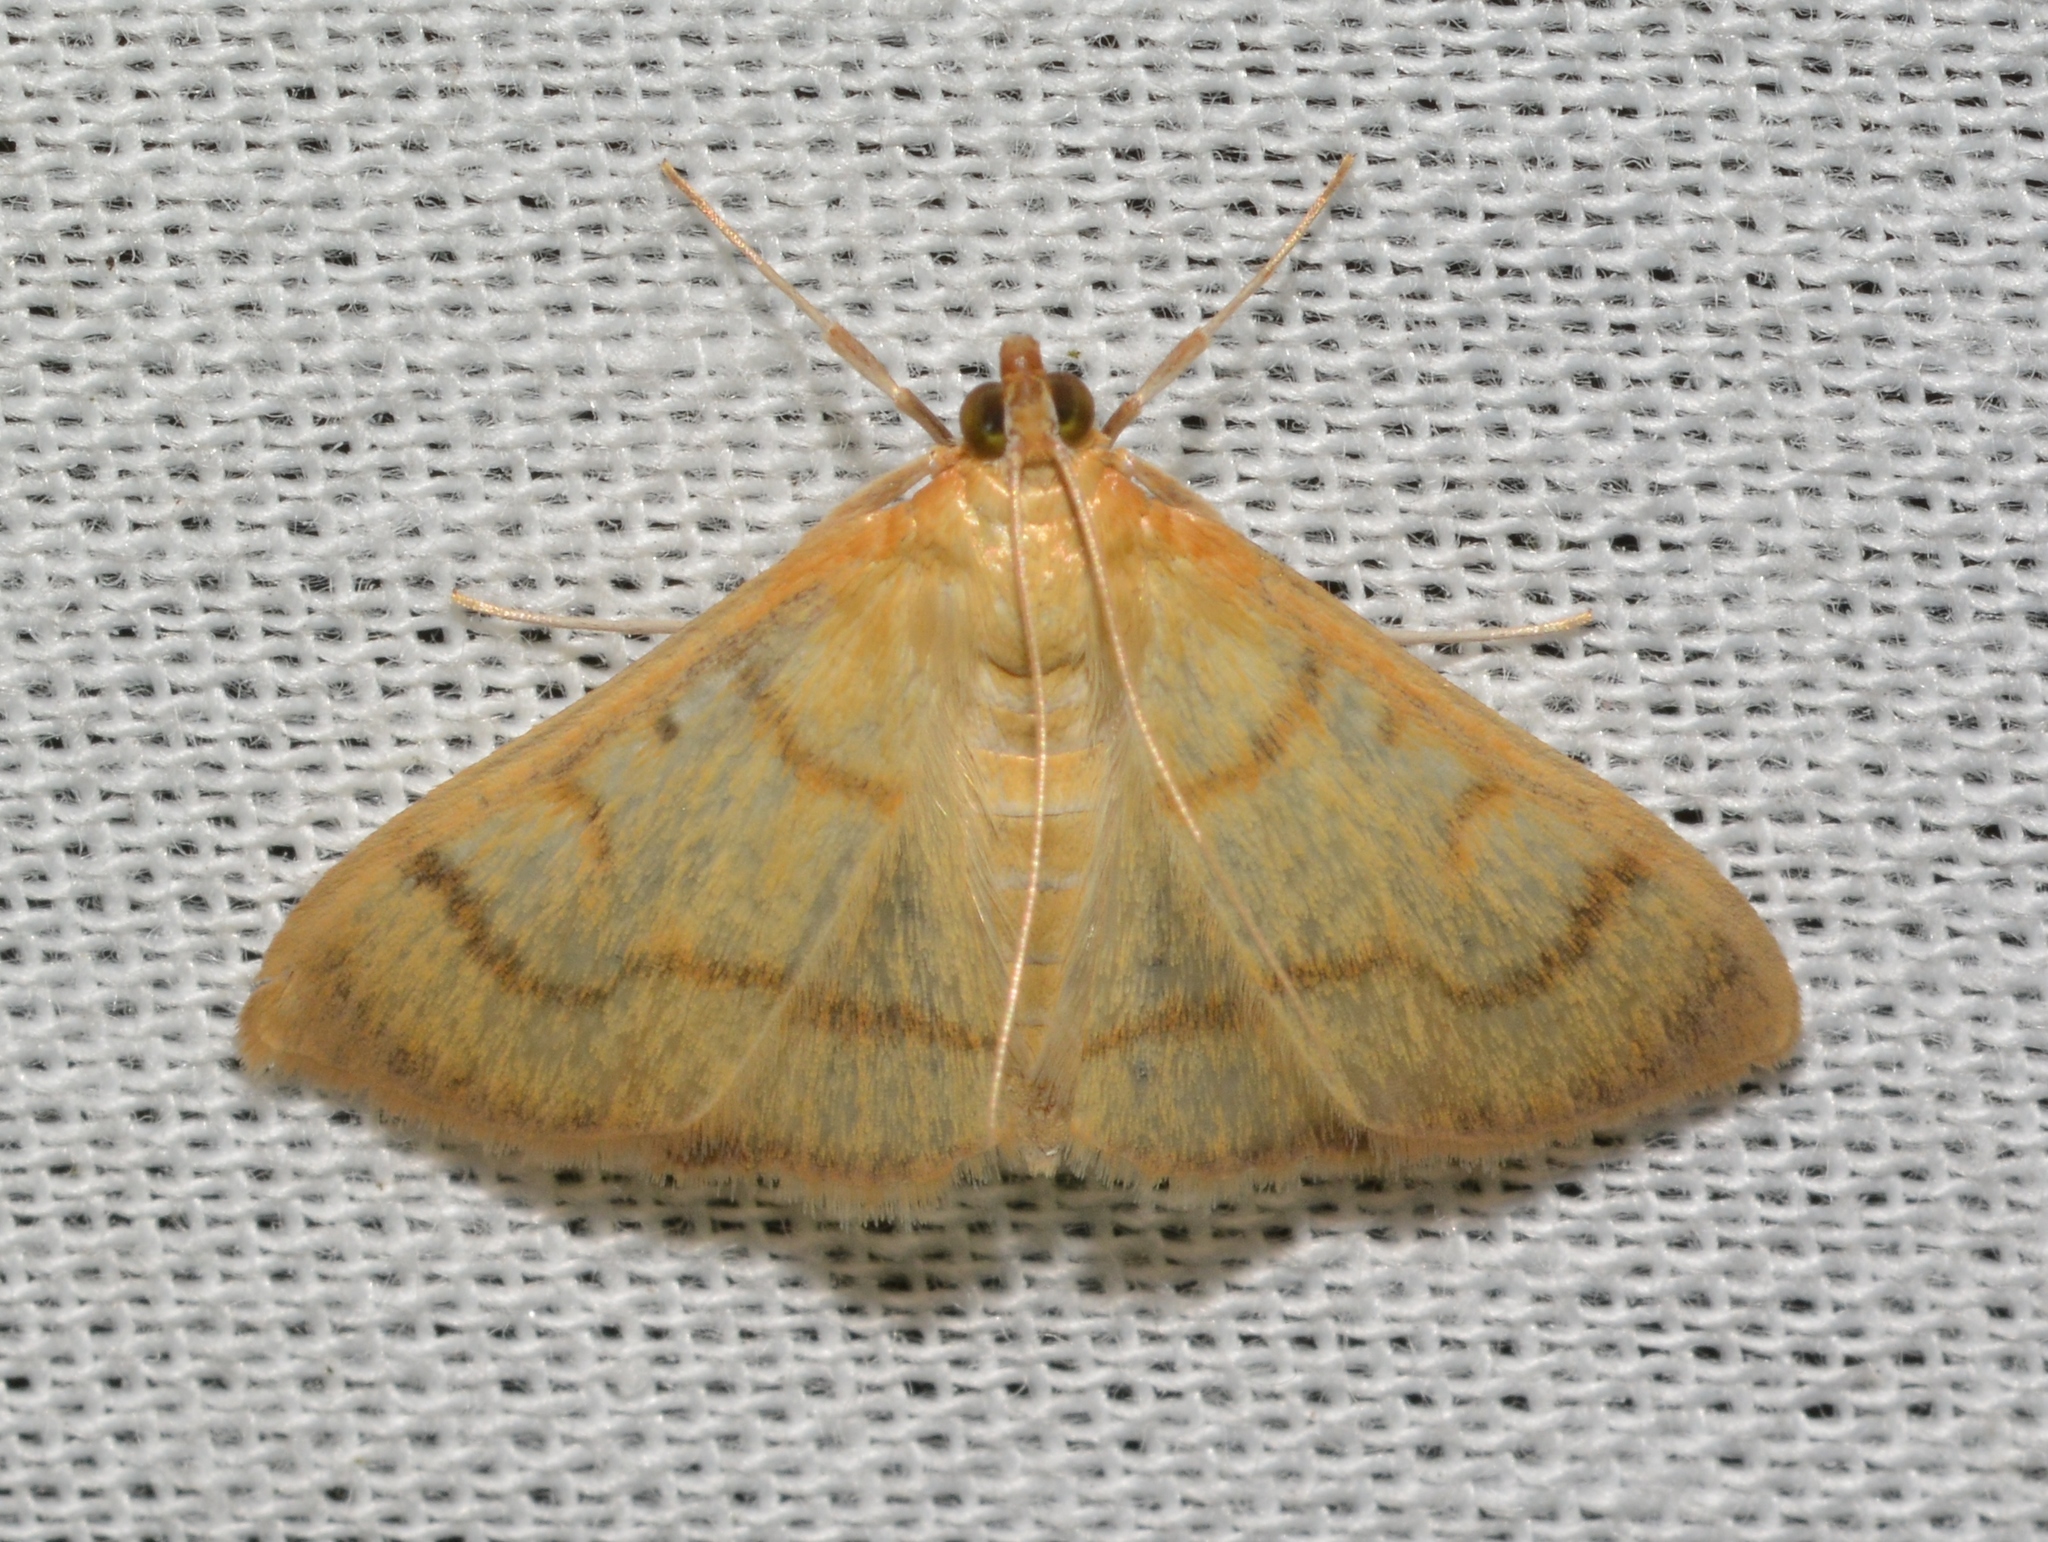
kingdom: Animalia
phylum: Arthropoda
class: Insecta
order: Lepidoptera
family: Crambidae
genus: Neohelvibotys
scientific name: Neohelvibotys neohelvialis
